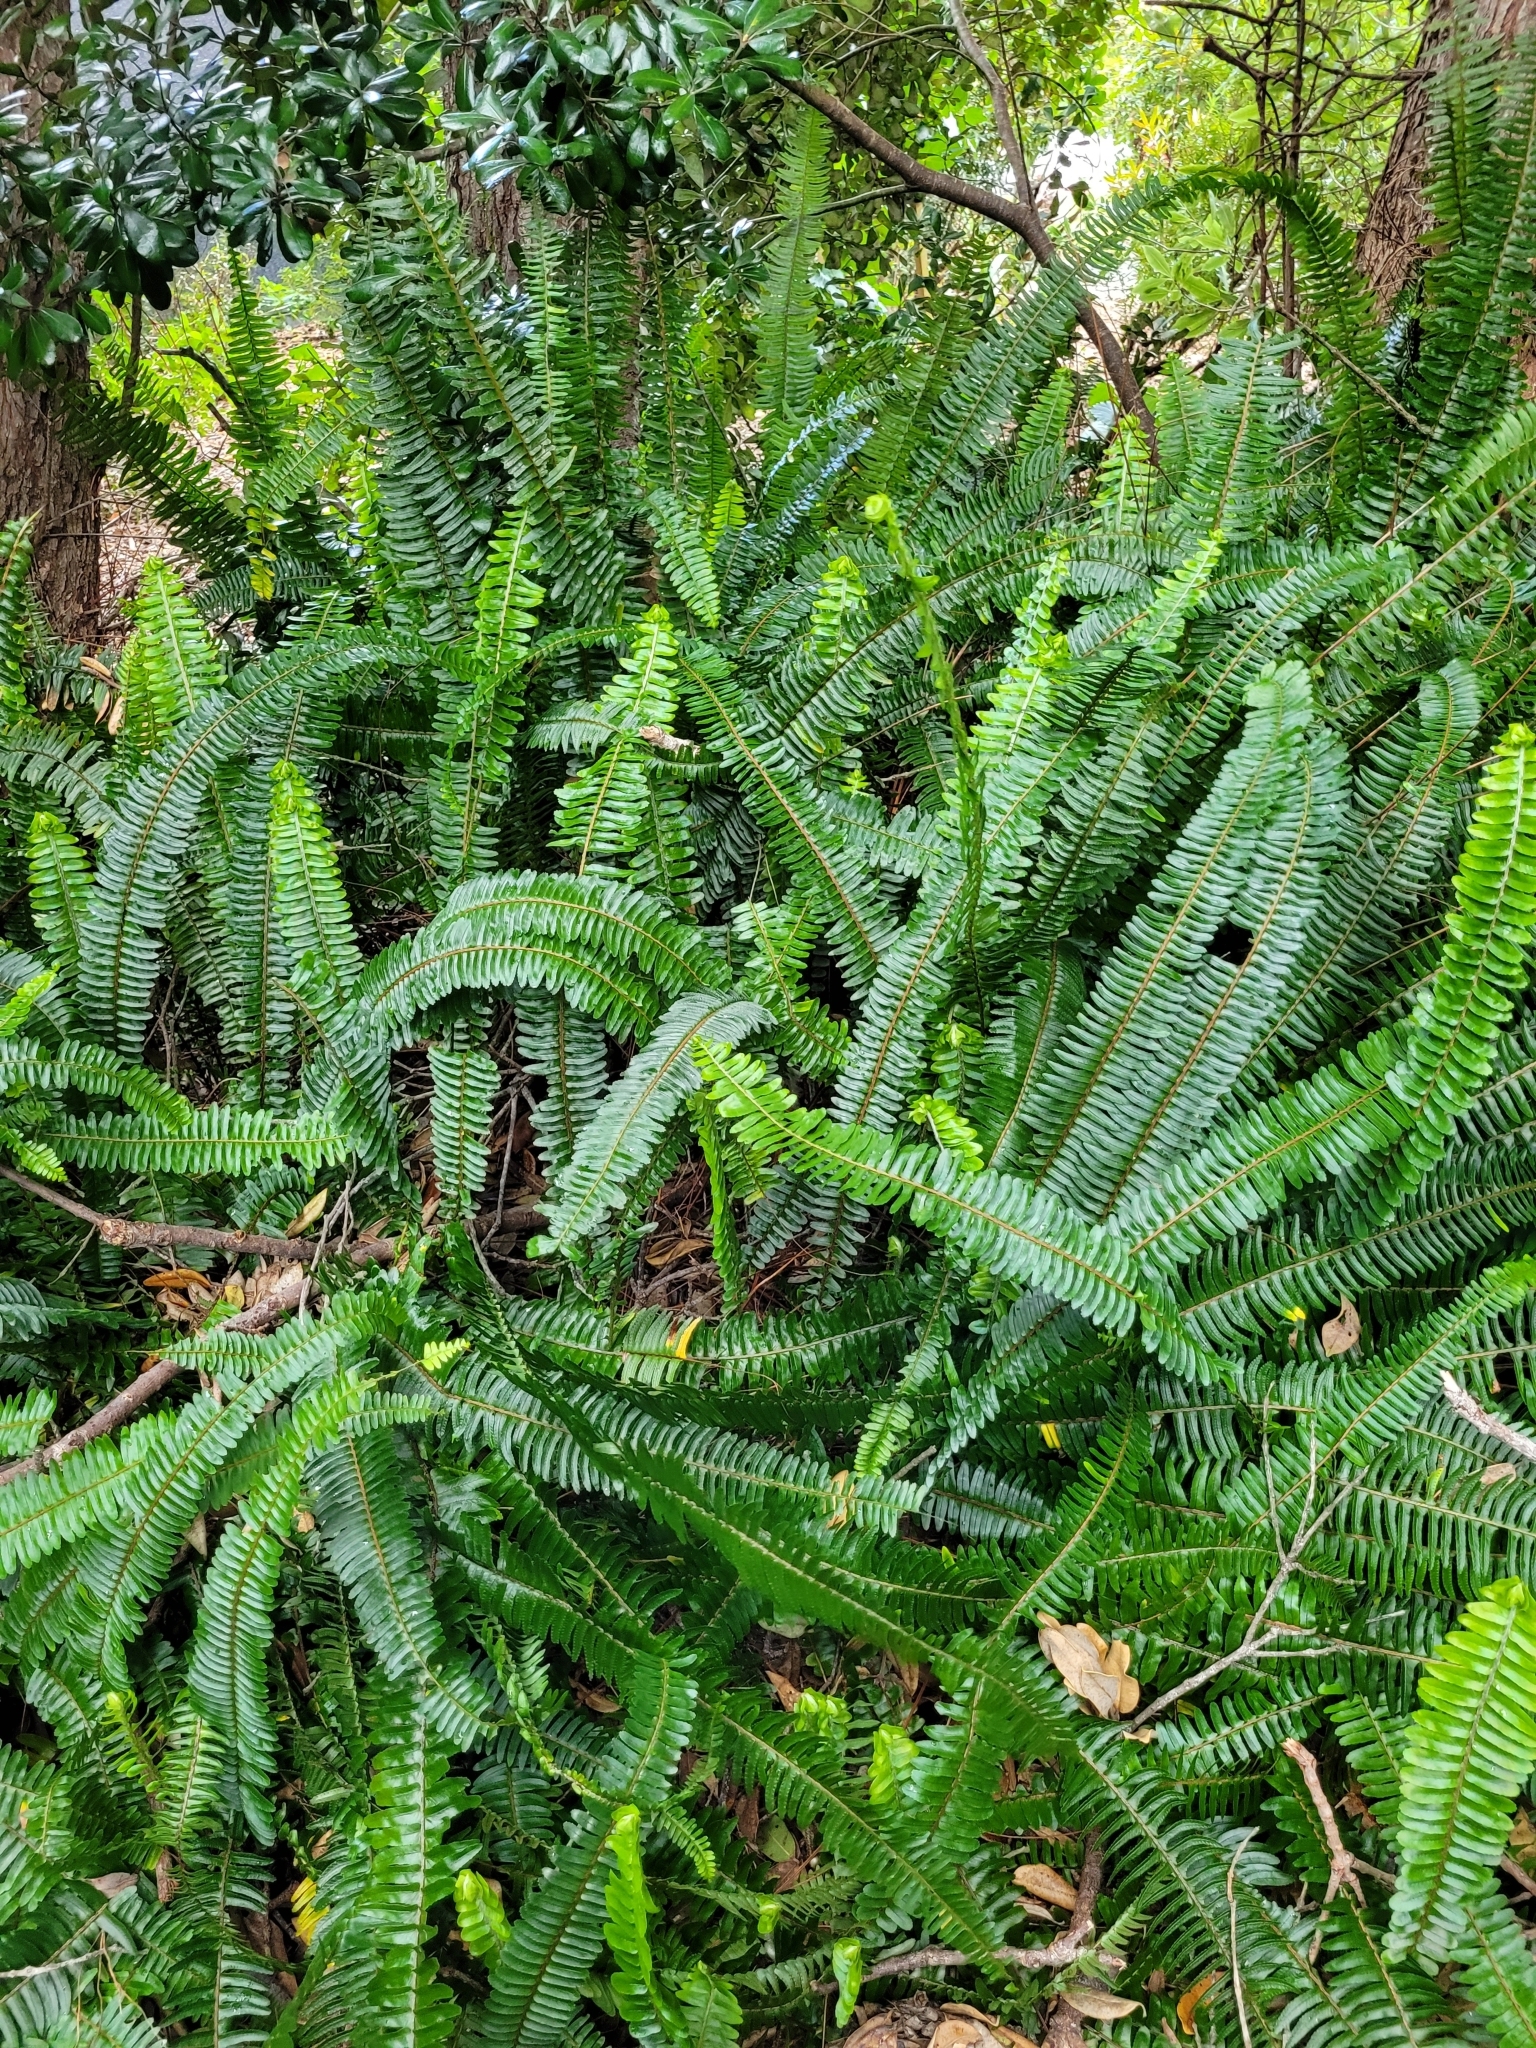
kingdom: Plantae
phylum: Tracheophyta
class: Polypodiopsida
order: Polypodiales
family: Nephrolepidaceae
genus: Nephrolepis
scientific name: Nephrolepis cordifolia
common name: Narrow swordfern
